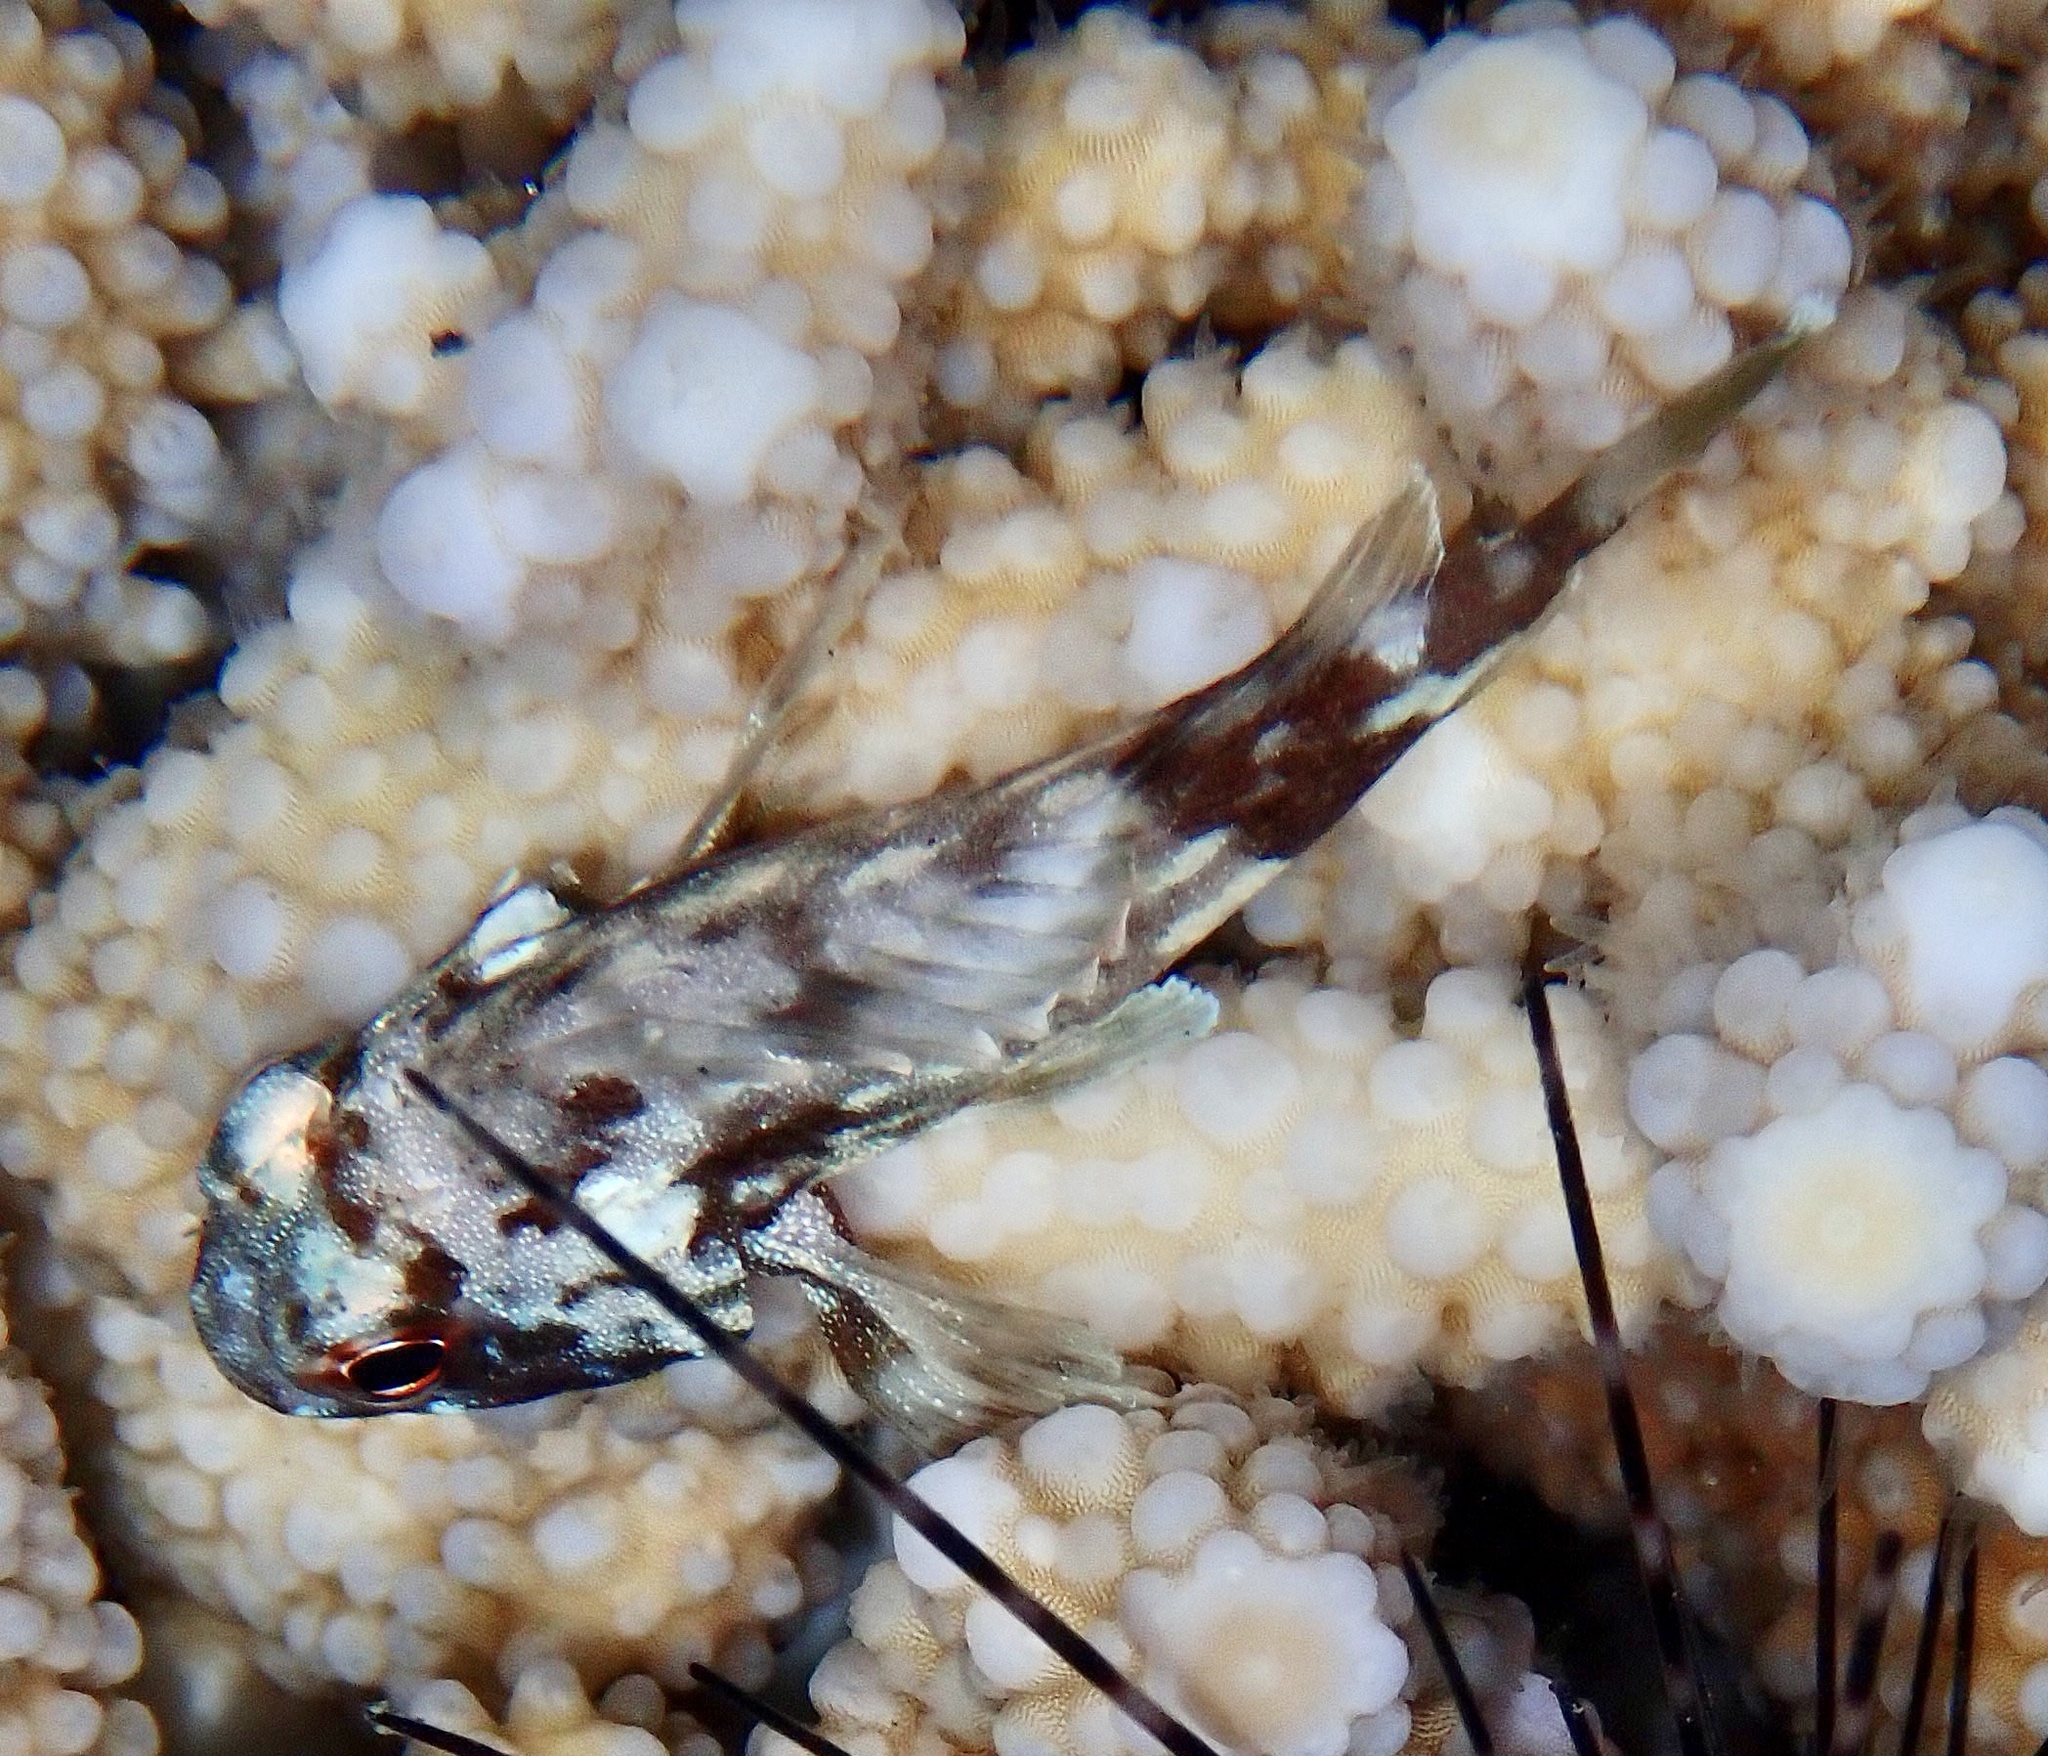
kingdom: Animalia
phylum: Chordata
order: Scorpaeniformes
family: Scorpaenidae
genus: Sebastapistes
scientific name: Sebastapistes cyanostigma
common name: Yellowspotted scorpionfish
